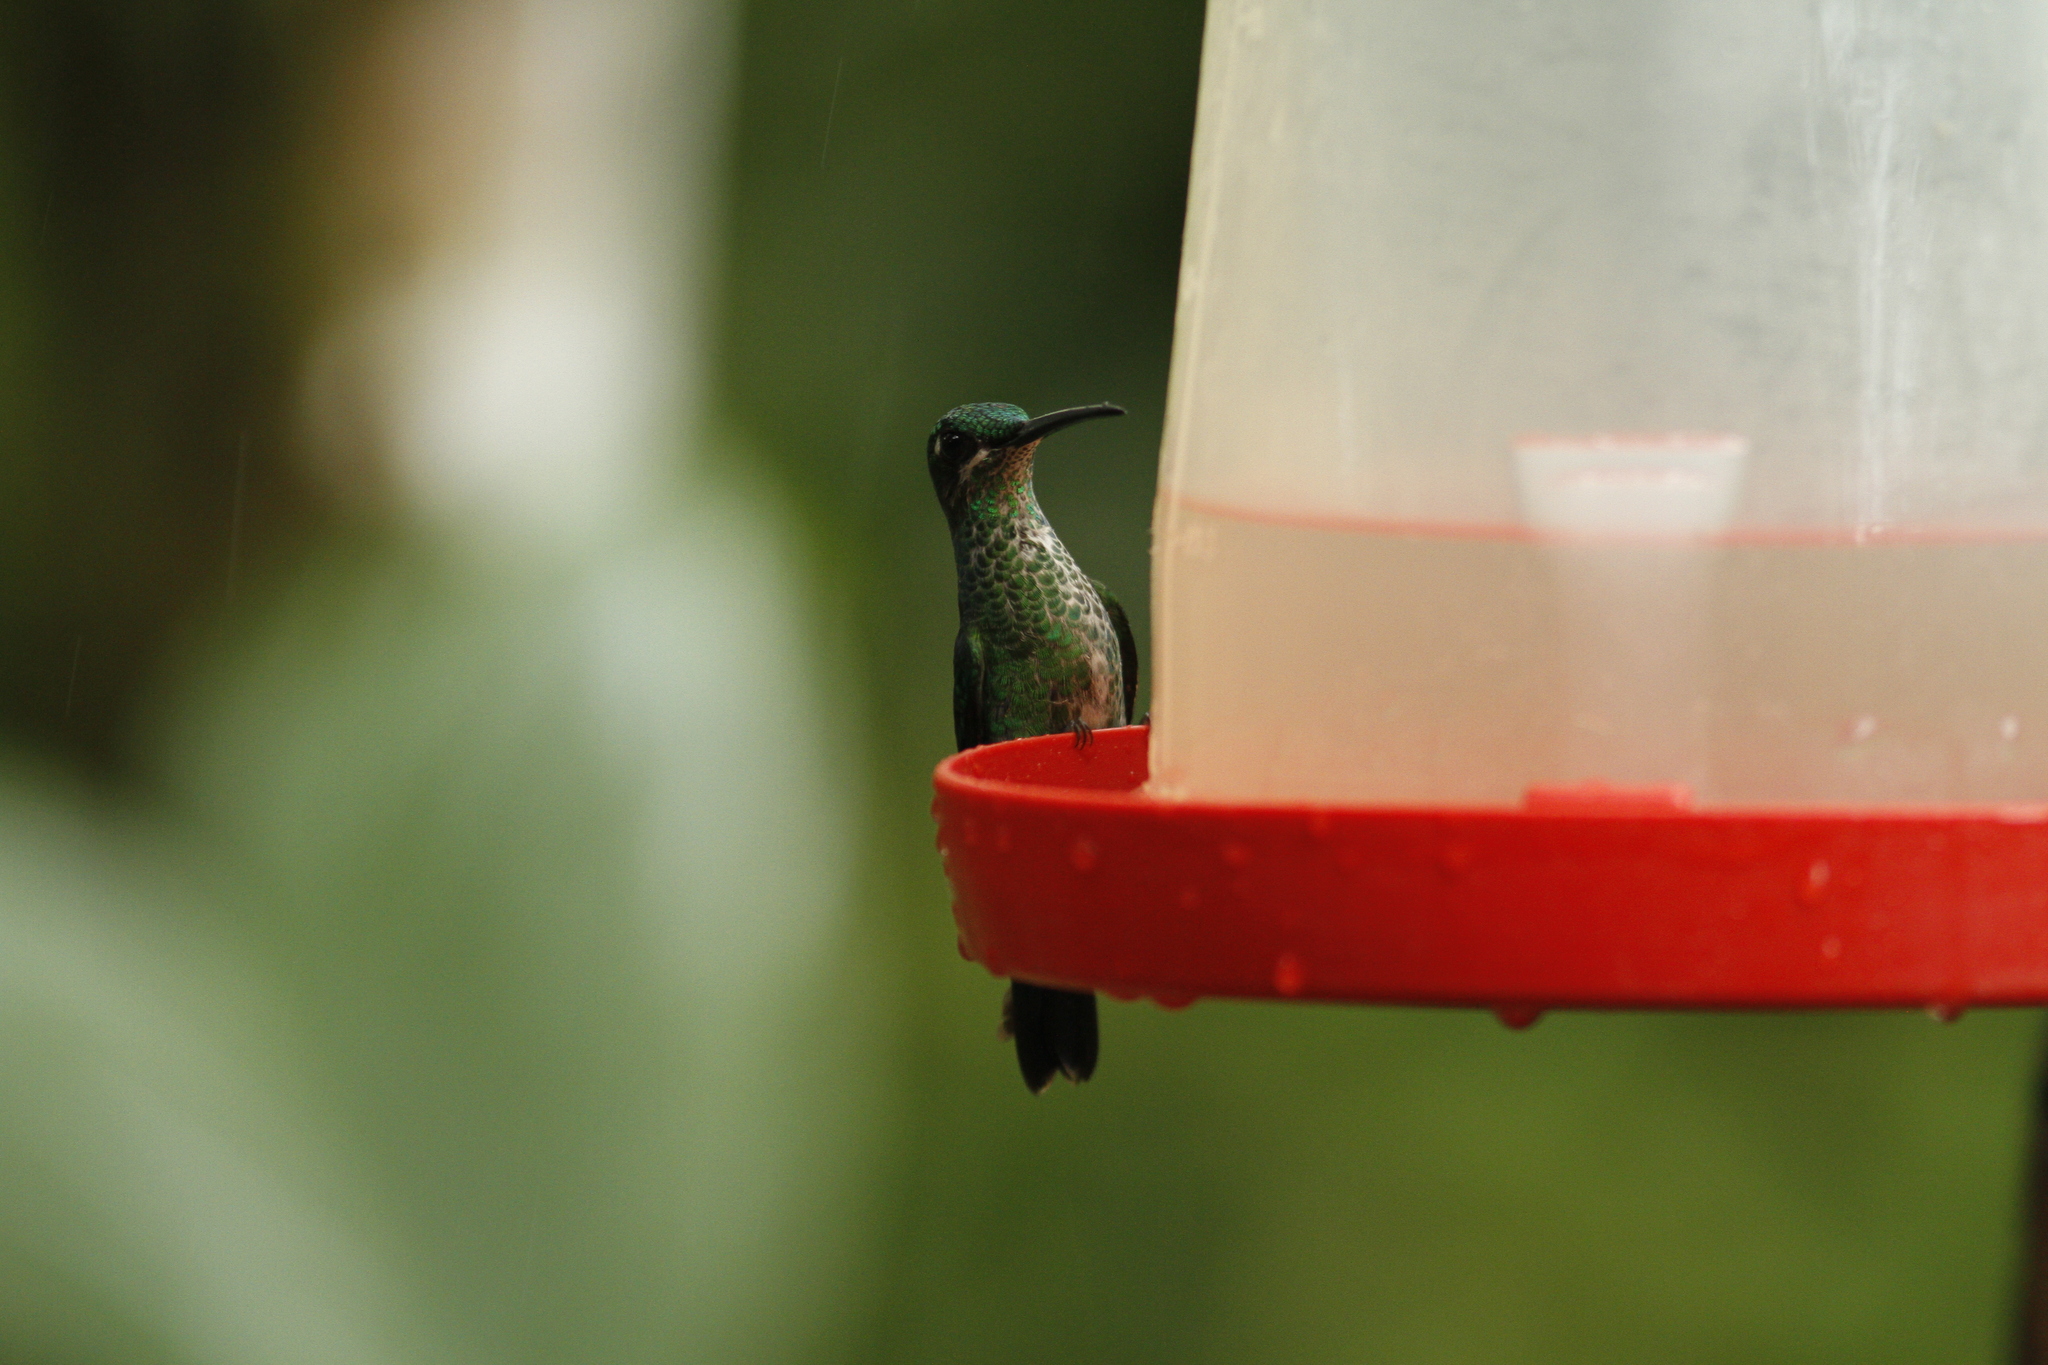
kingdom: Animalia
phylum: Chordata
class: Aves
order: Apodiformes
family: Trochilidae
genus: Heliodoxa
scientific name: Heliodoxa jacula
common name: Green-crowned brilliant
